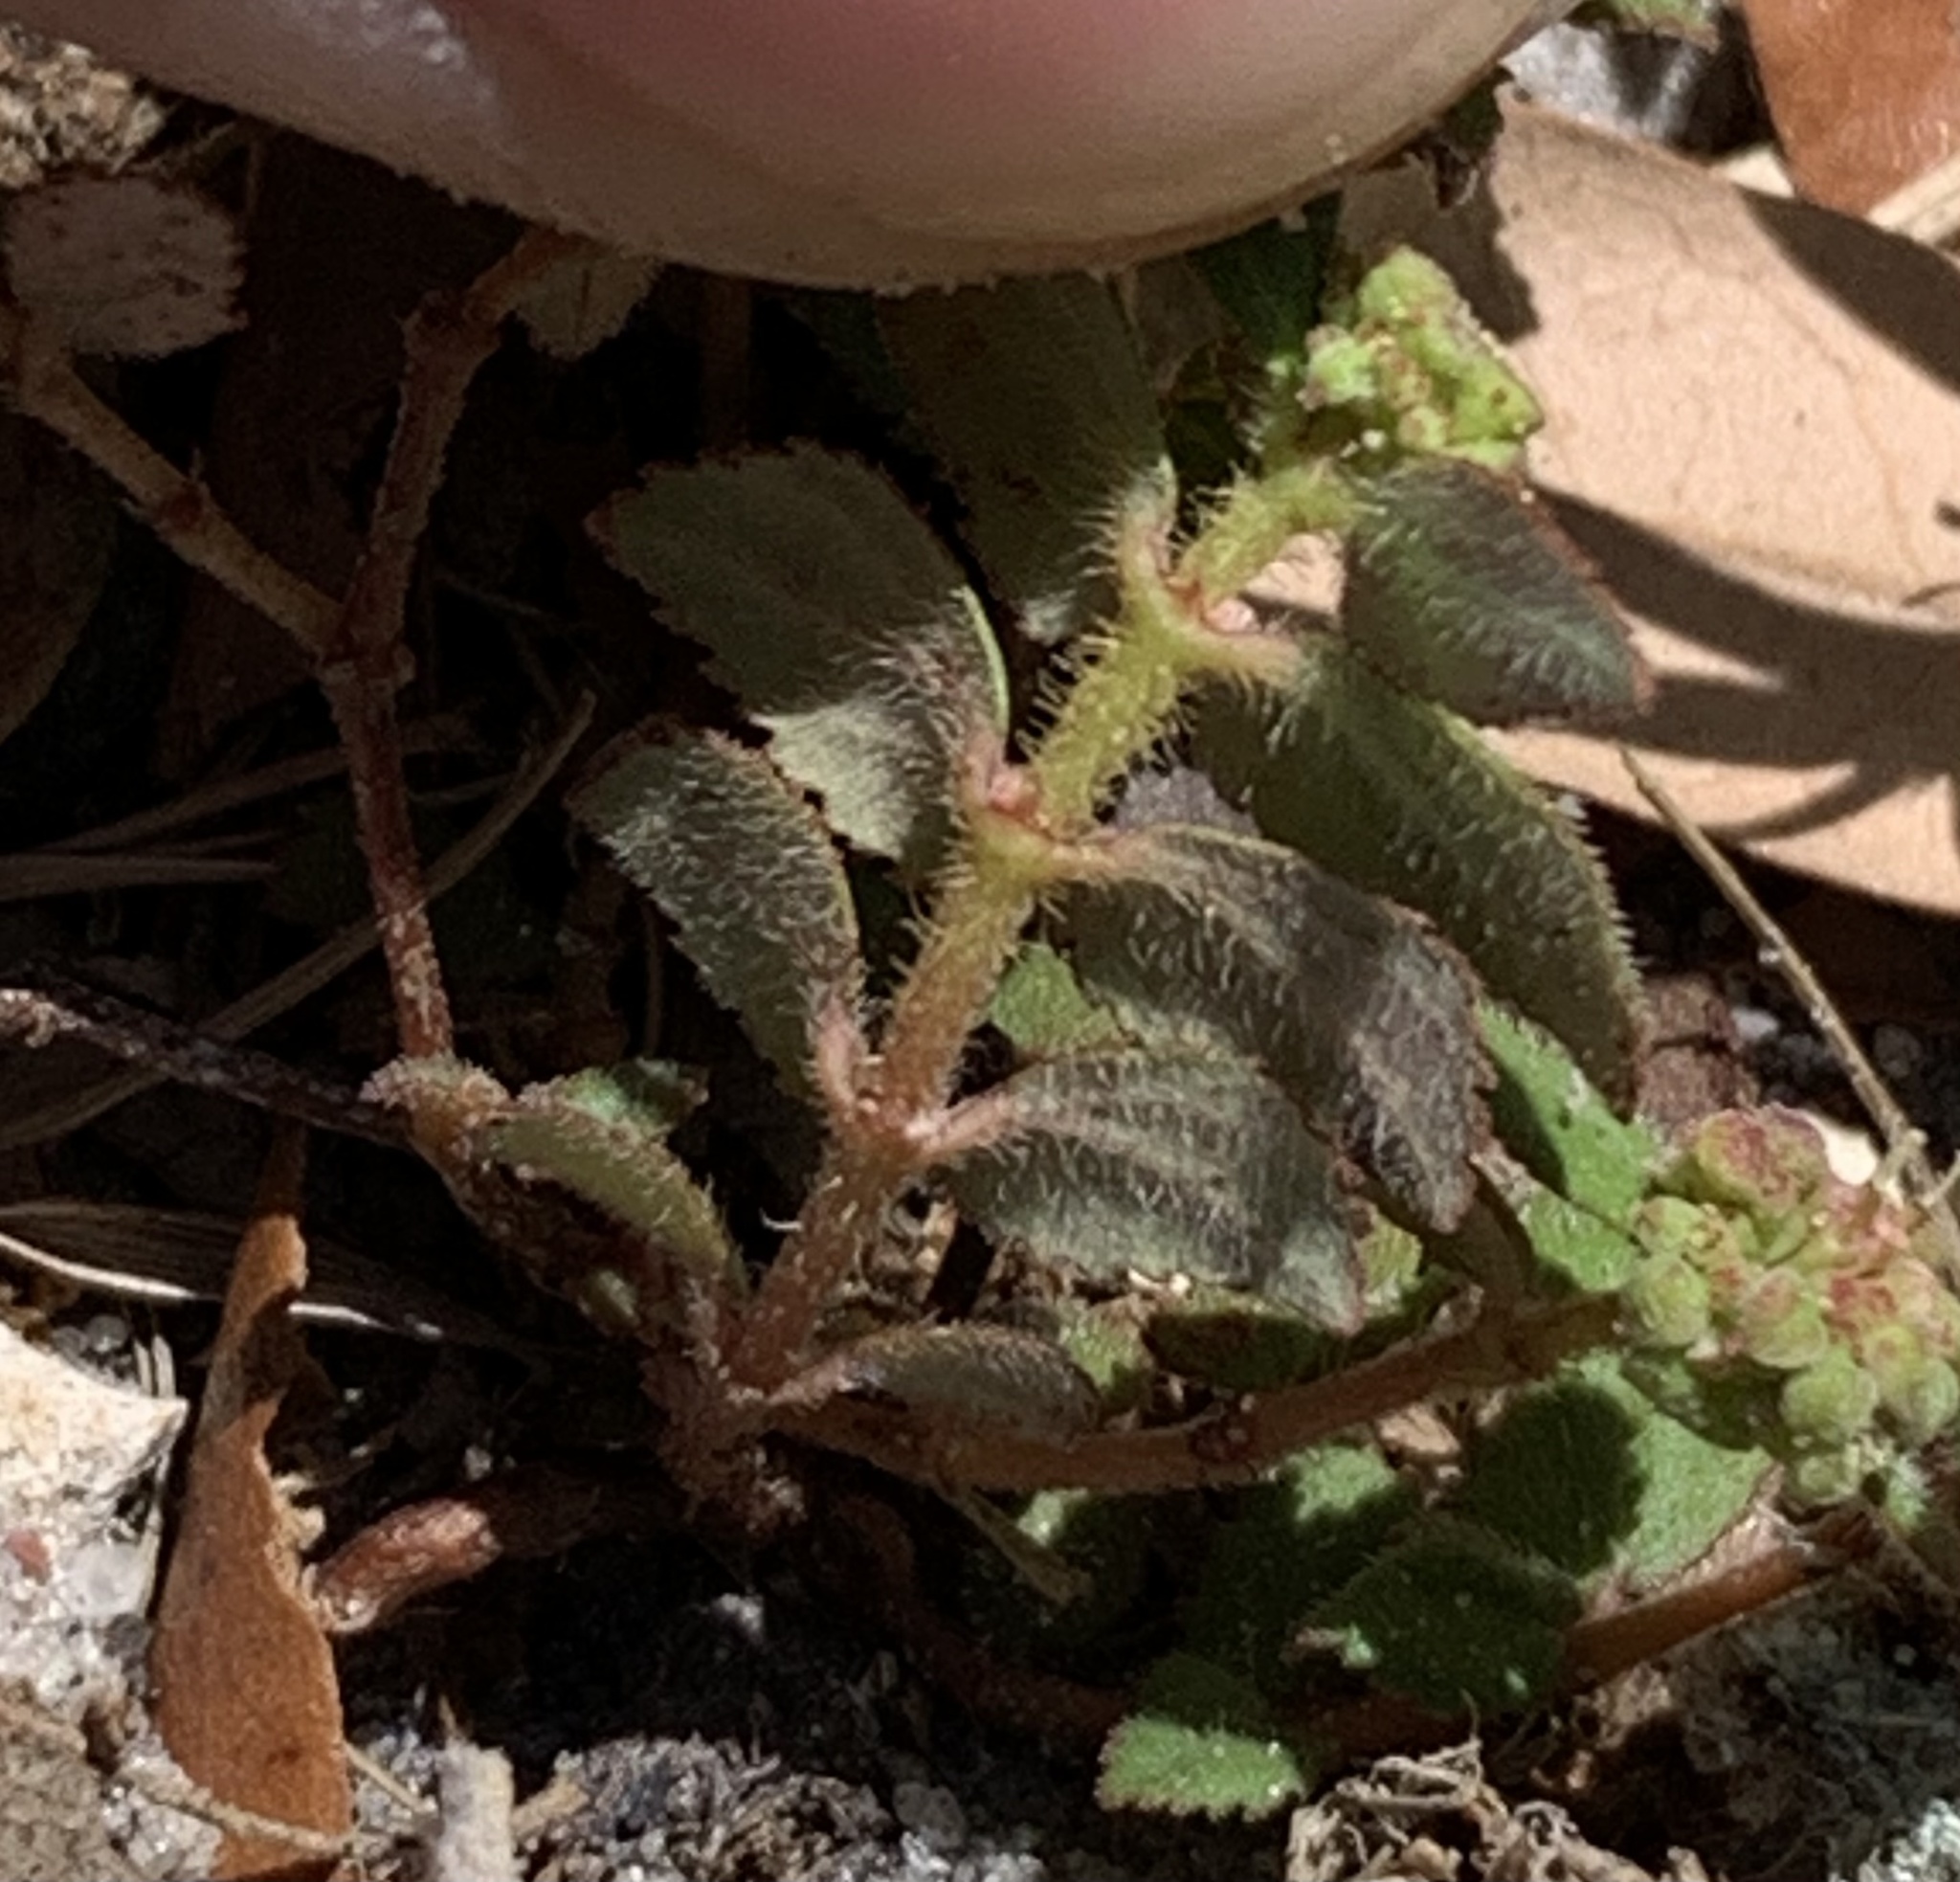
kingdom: Plantae
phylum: Tracheophyta
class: Magnoliopsida
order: Malpighiales
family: Euphorbiaceae
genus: Euphorbia
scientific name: Euphorbia ophthalmica
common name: Florida hammock sandmat
